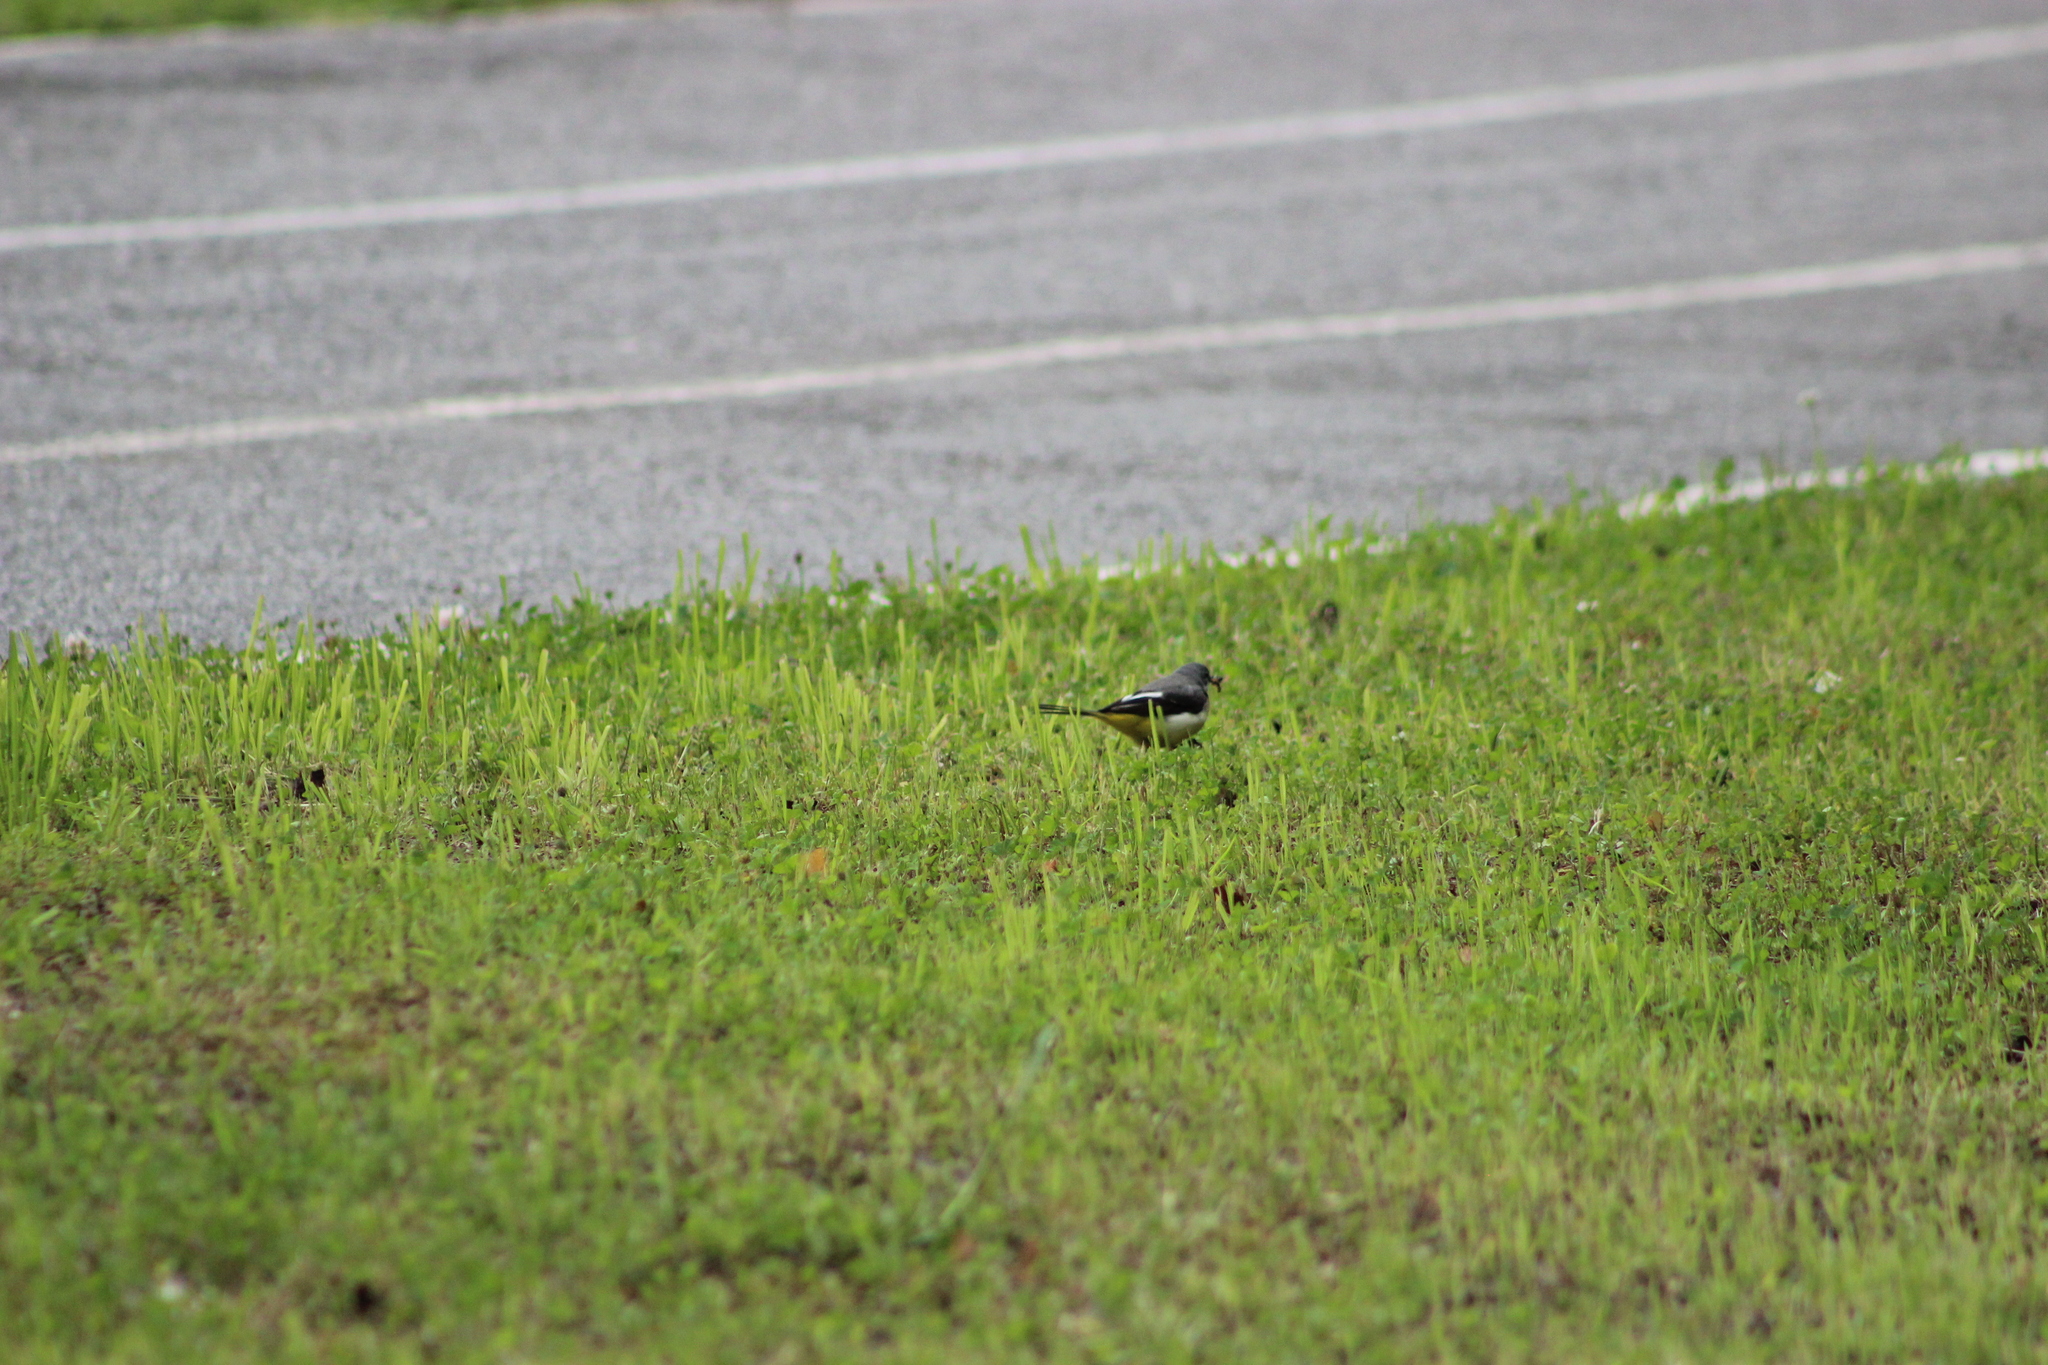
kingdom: Animalia
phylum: Chordata
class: Aves
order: Passeriformes
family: Motacillidae
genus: Motacilla
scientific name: Motacilla cinerea
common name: Grey wagtail
